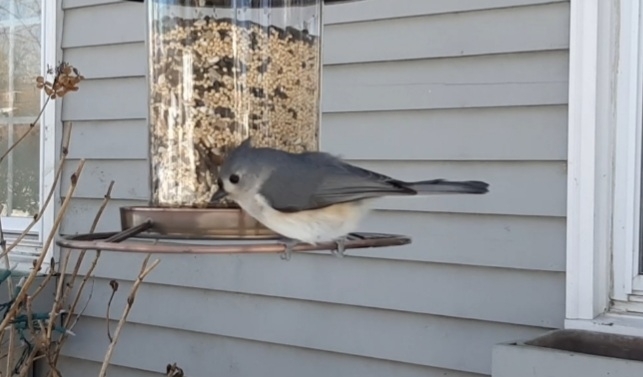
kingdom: Animalia
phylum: Chordata
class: Aves
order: Passeriformes
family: Paridae
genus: Baeolophus
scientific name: Baeolophus bicolor
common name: Tufted titmouse
